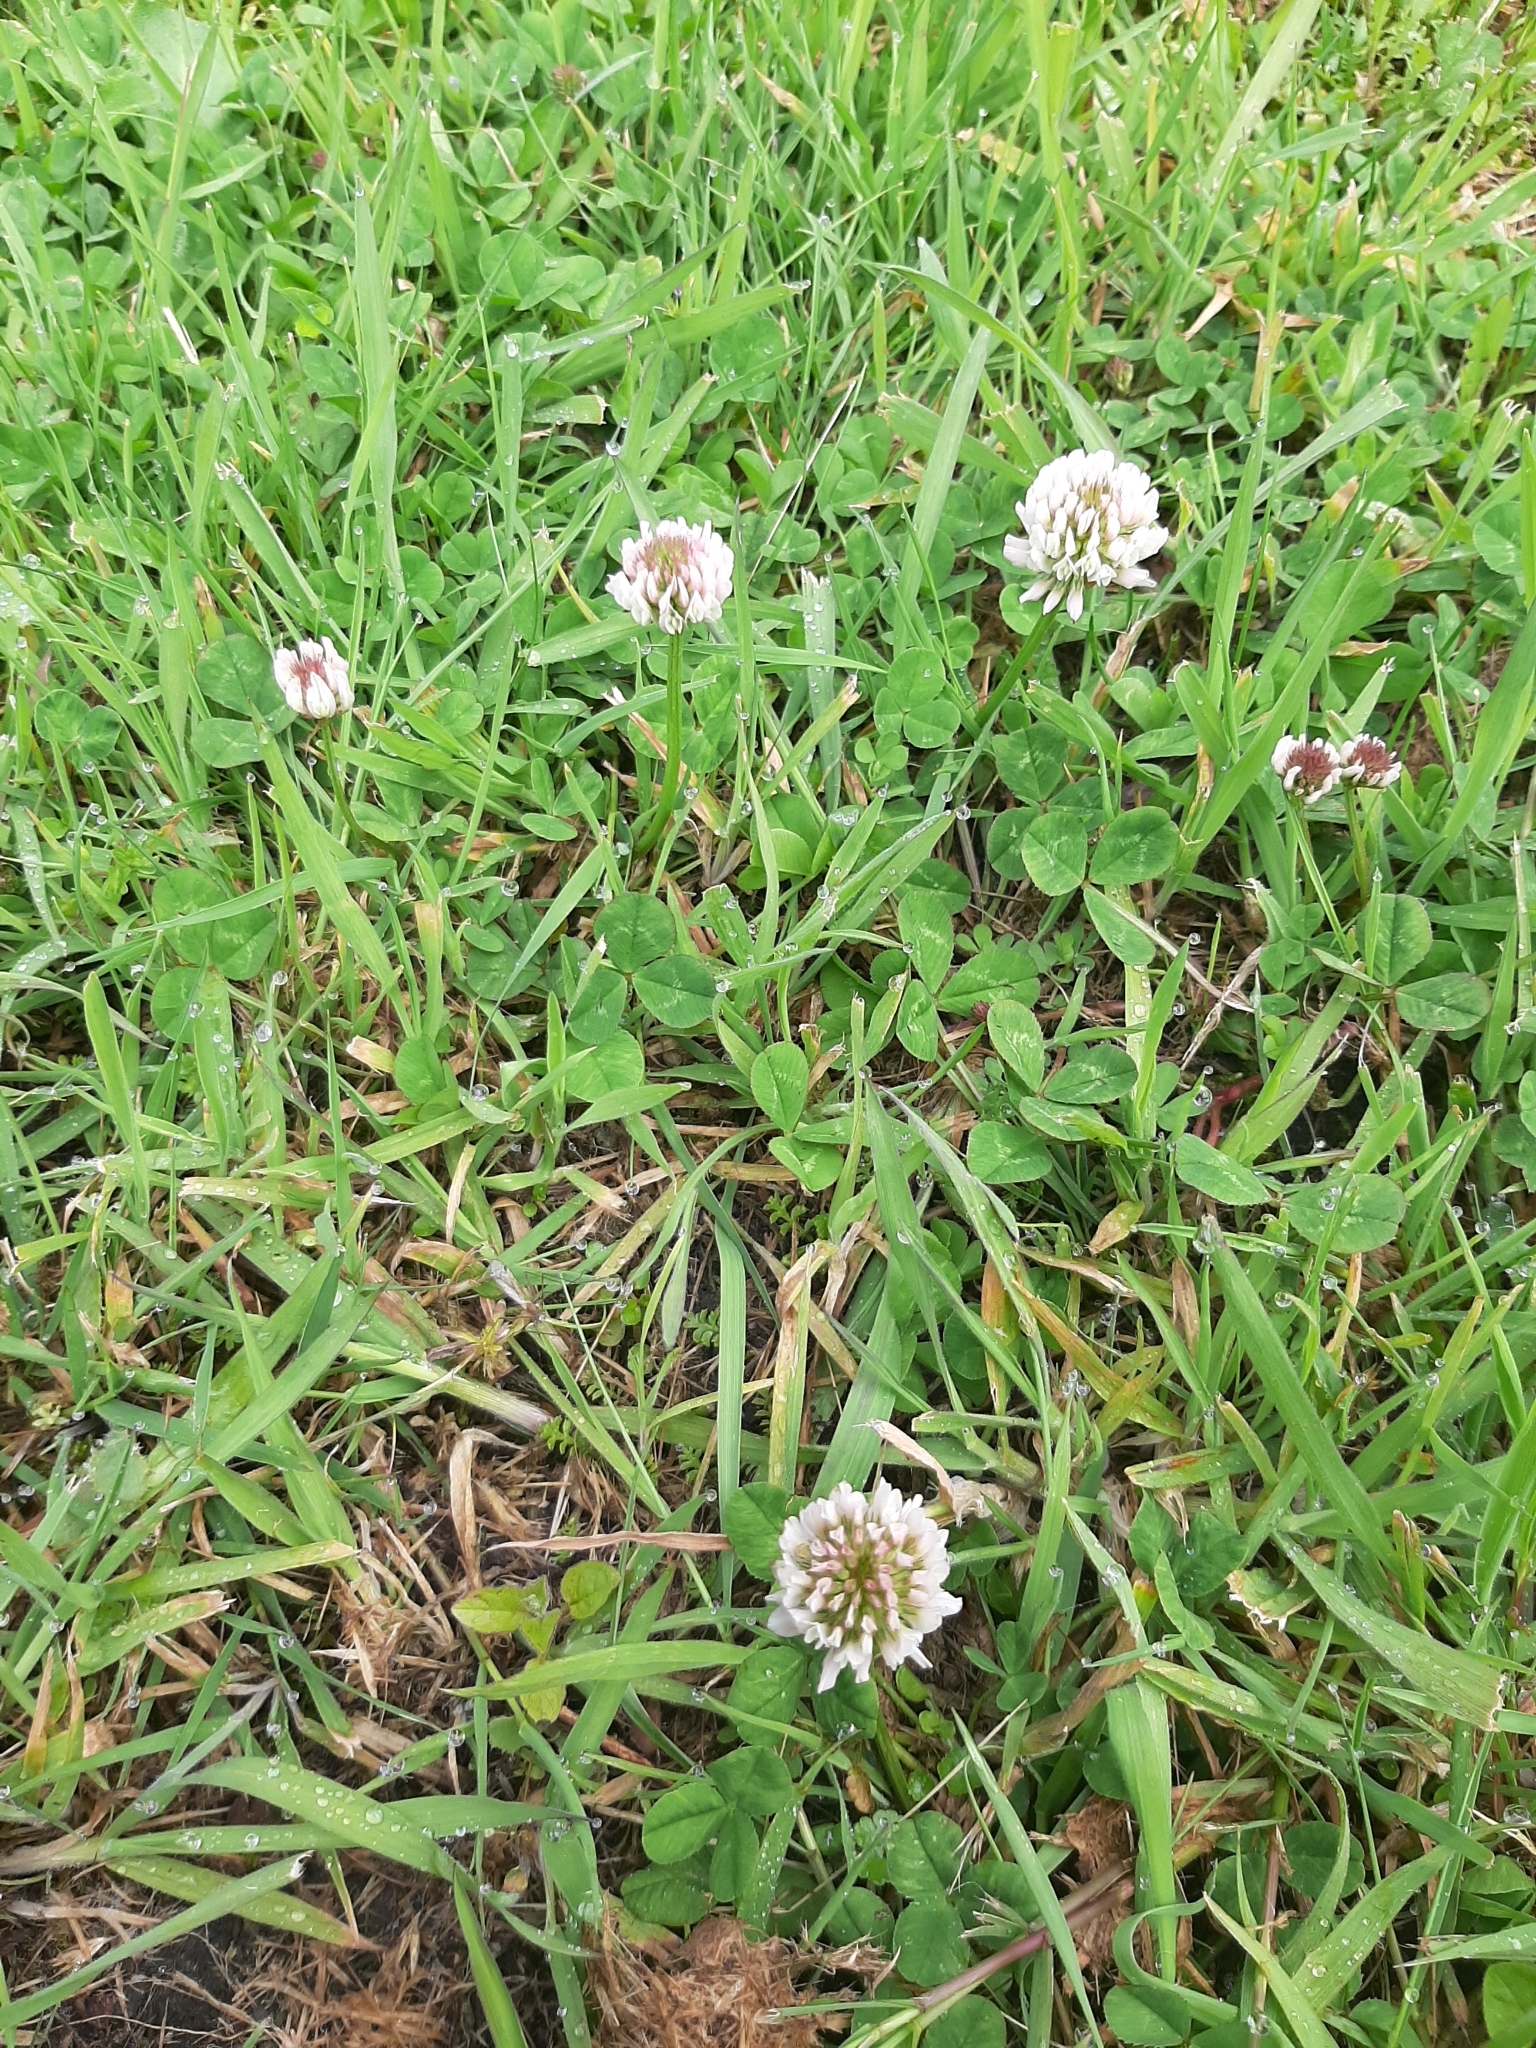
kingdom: Plantae
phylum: Tracheophyta
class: Magnoliopsida
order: Fabales
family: Fabaceae
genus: Trifolium
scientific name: Trifolium repens
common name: White clover
